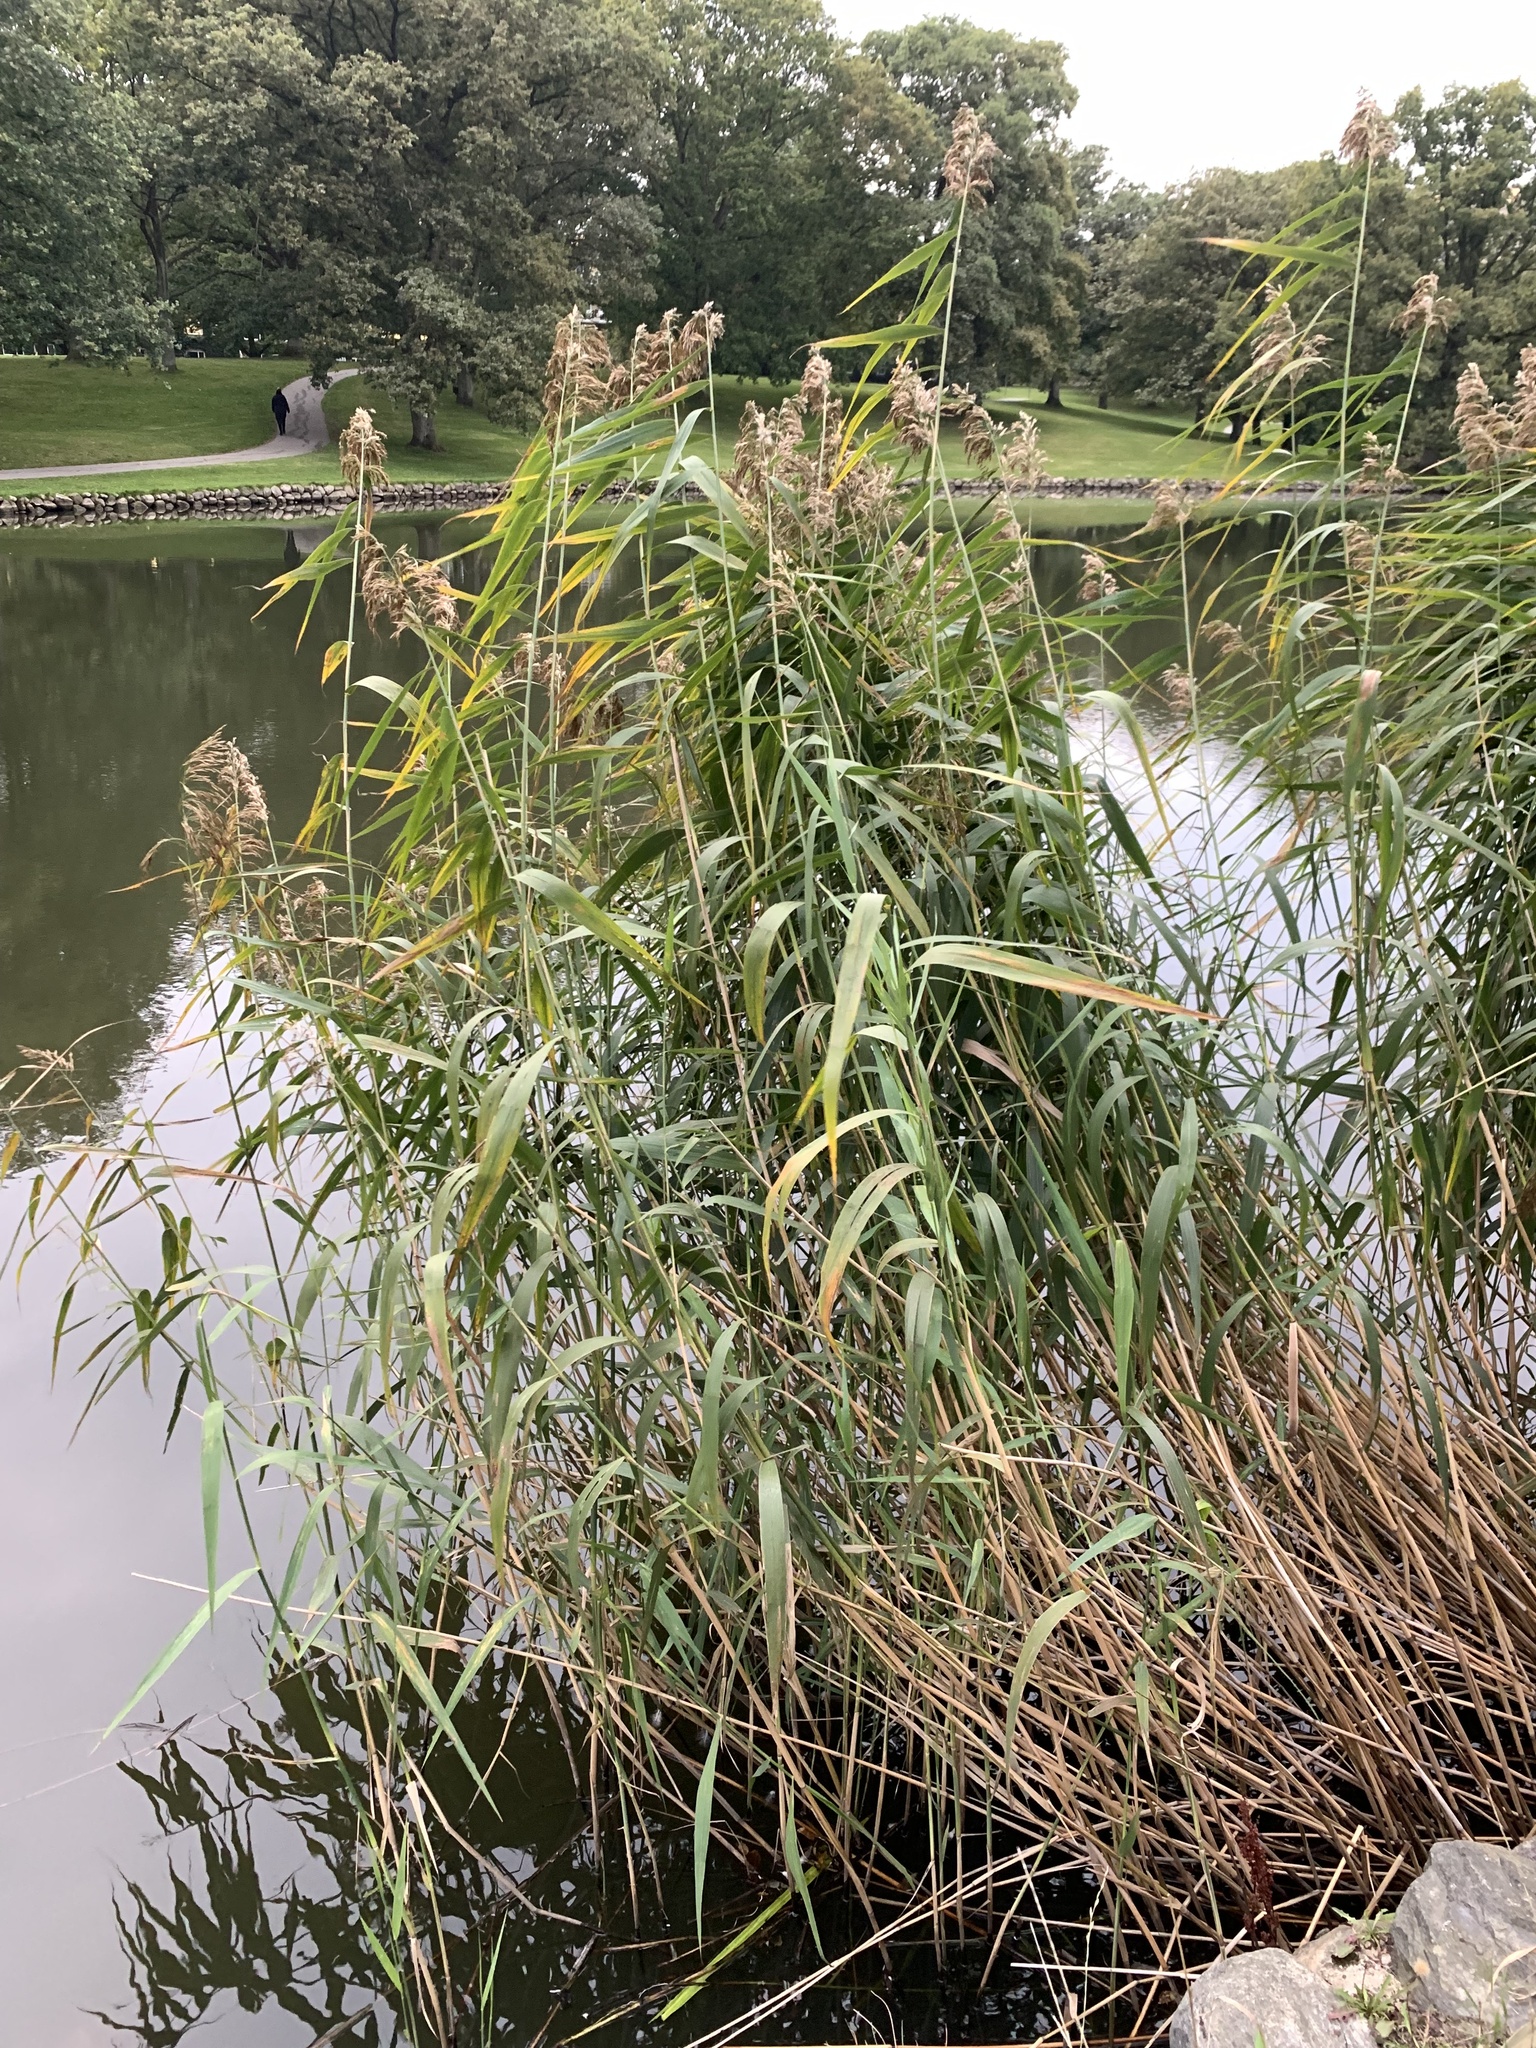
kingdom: Plantae
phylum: Tracheophyta
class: Liliopsida
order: Poales
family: Poaceae
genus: Phragmites
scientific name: Phragmites australis
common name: Common reed
